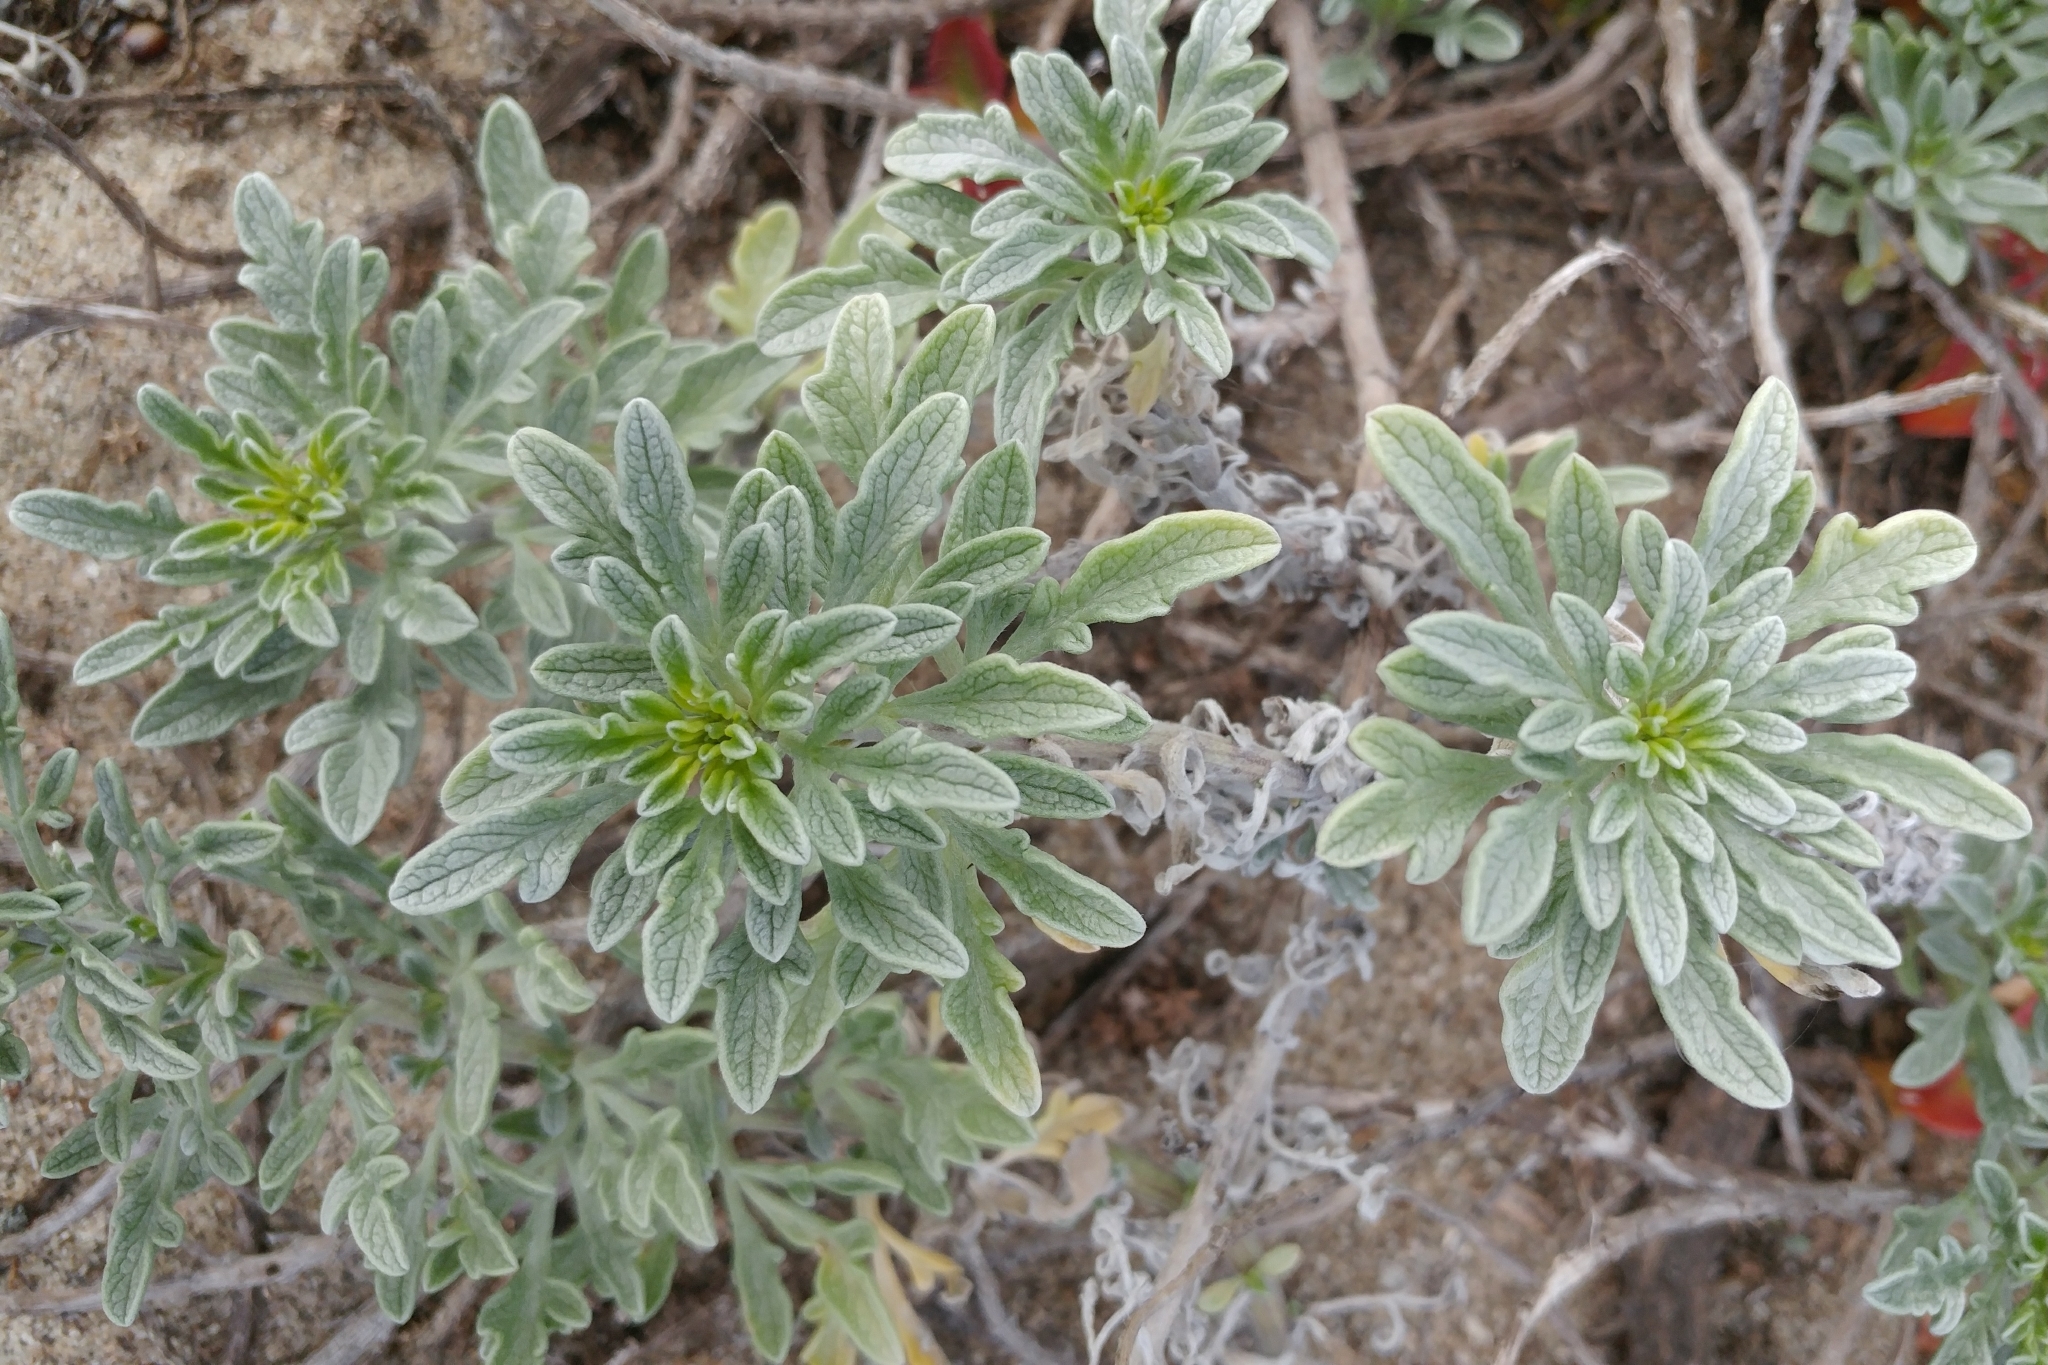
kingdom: Plantae
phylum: Tracheophyta
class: Magnoliopsida
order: Asterales
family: Asteraceae
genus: Ambrosia
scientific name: Ambrosia chamissonis
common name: Beachbur
